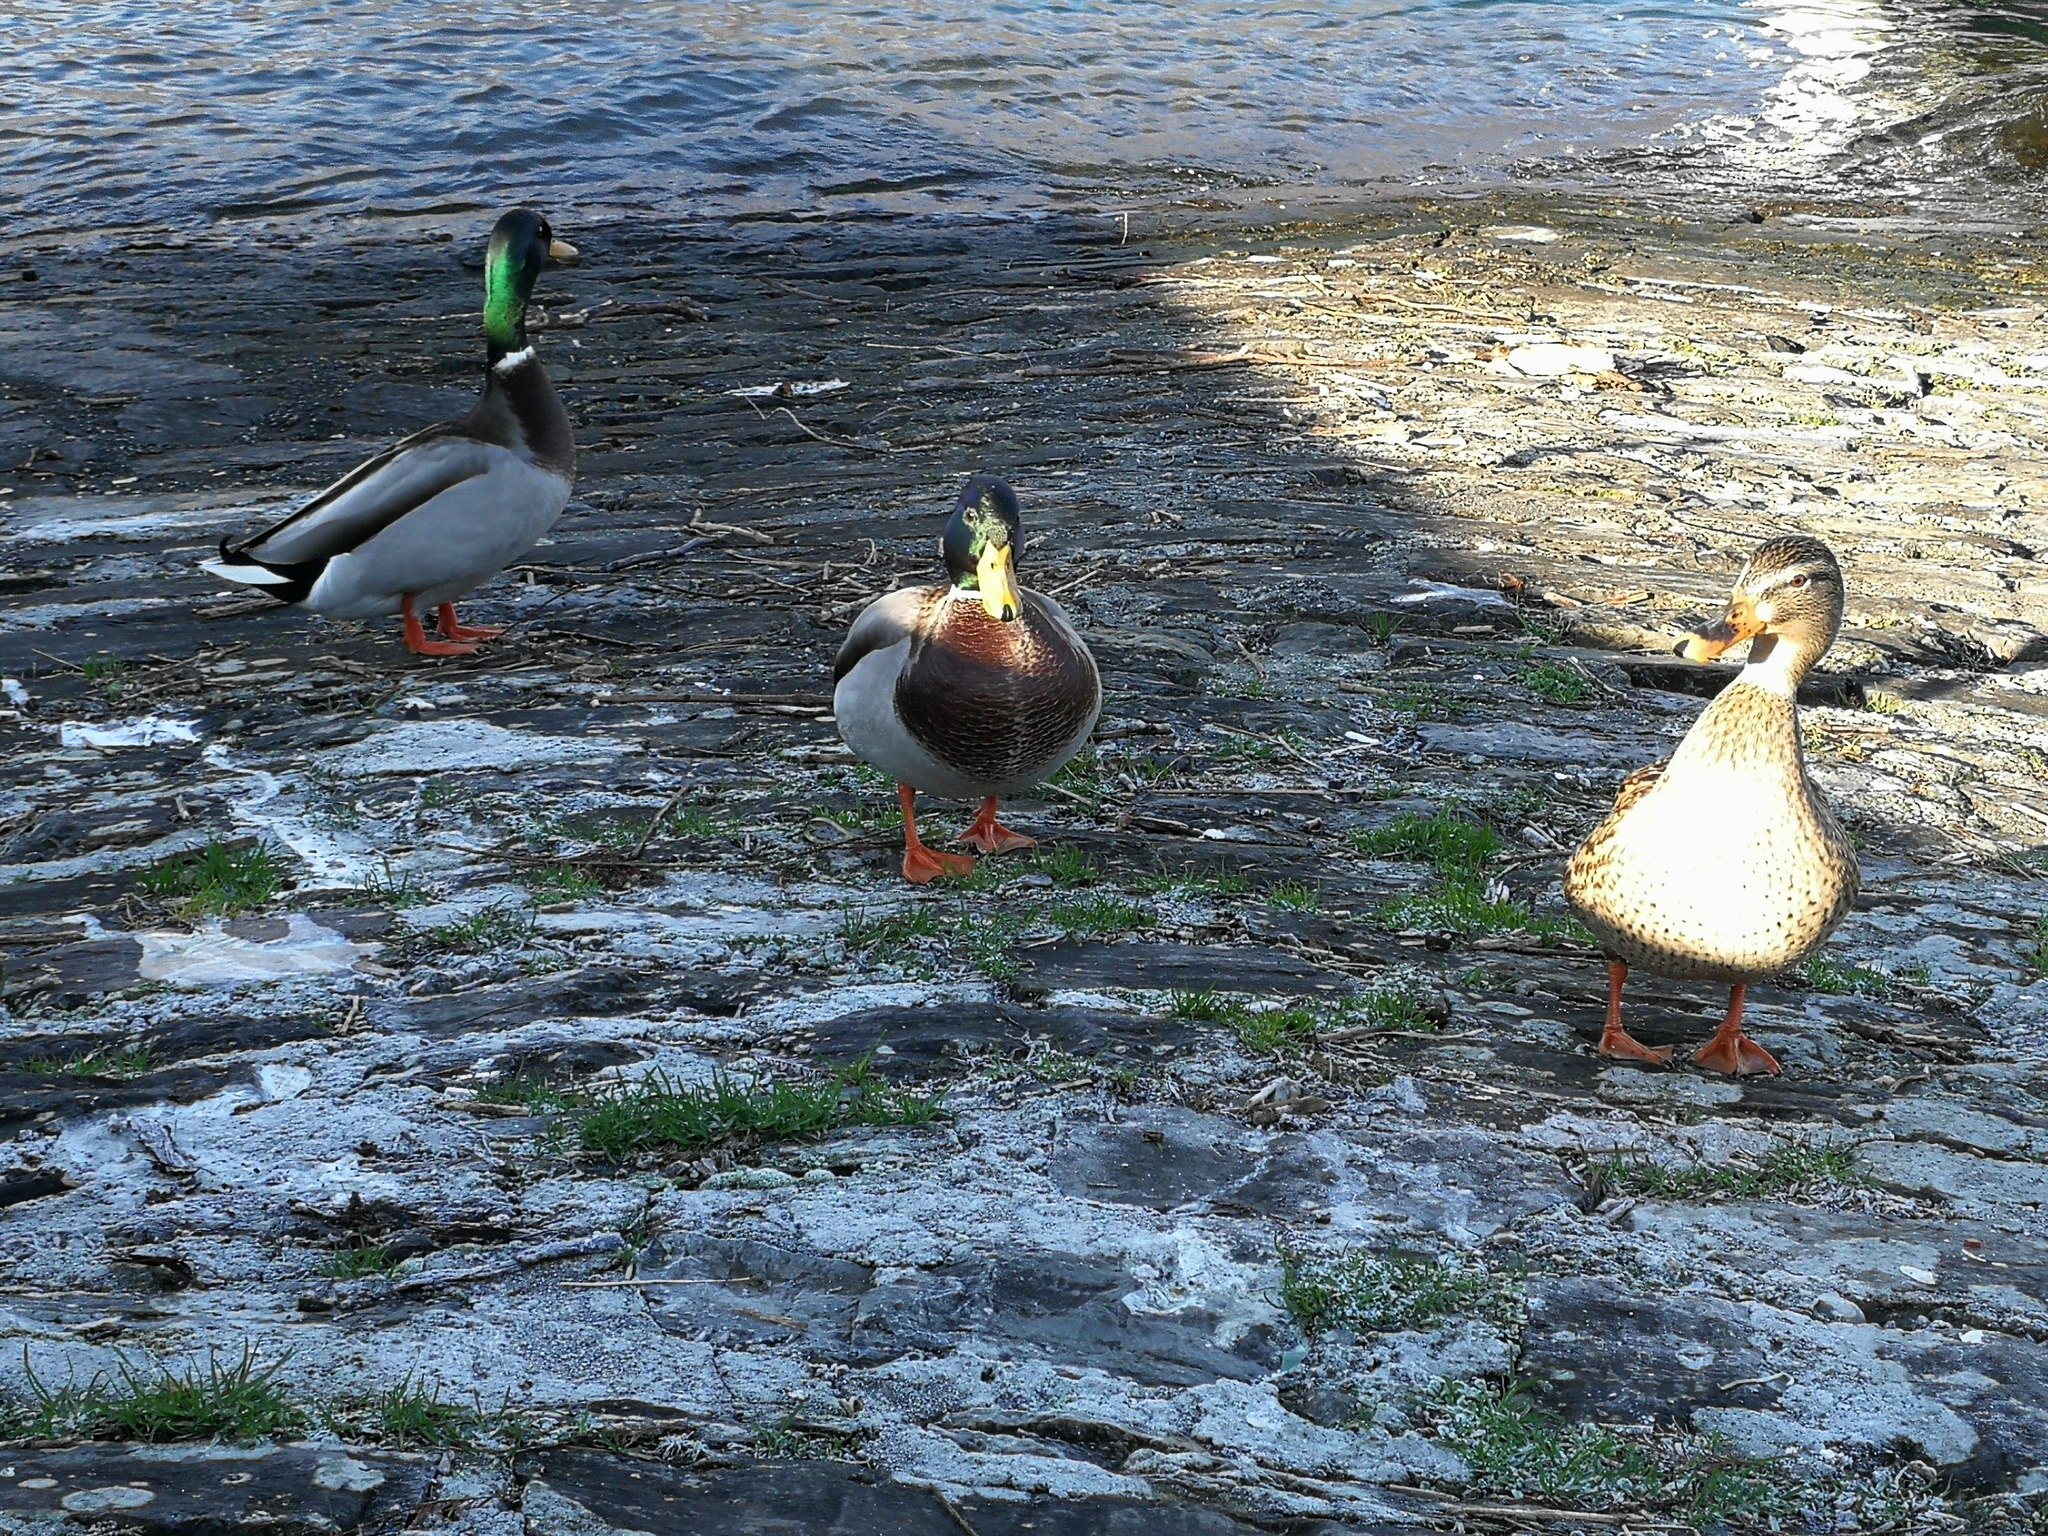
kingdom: Animalia
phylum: Chordata
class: Aves
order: Anseriformes
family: Anatidae
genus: Anas
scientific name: Anas platyrhynchos
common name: Mallard
